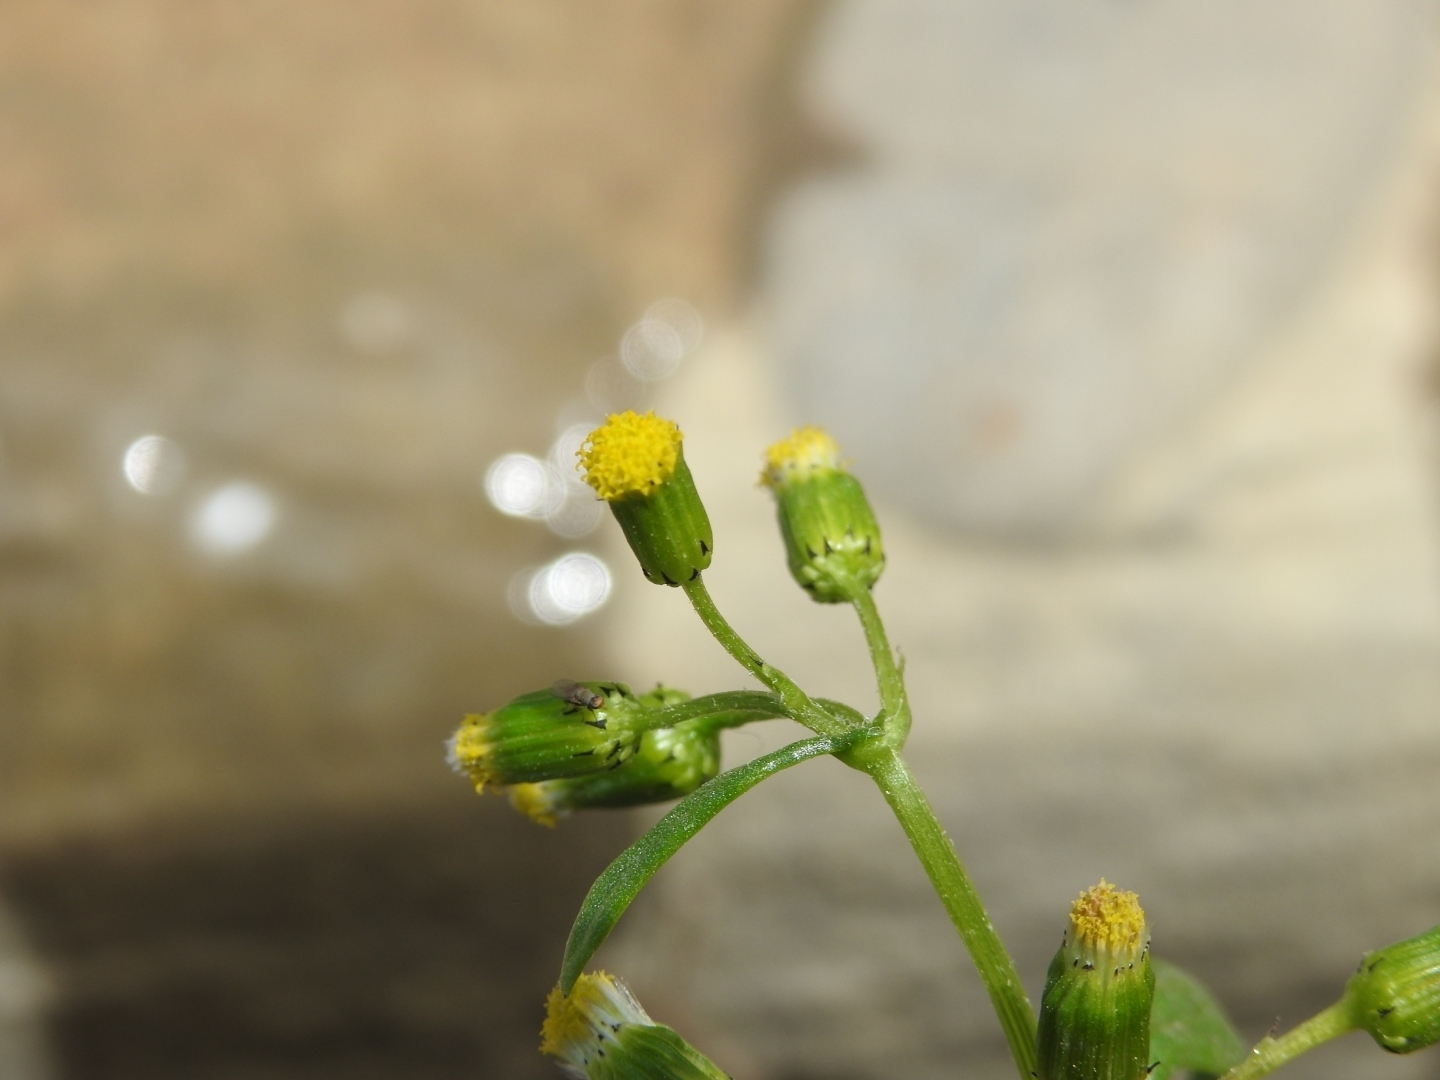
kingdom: Plantae
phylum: Tracheophyta
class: Magnoliopsida
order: Asterales
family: Asteraceae
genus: Senecio
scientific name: Senecio vulgaris
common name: Old-man-in-the-spring
